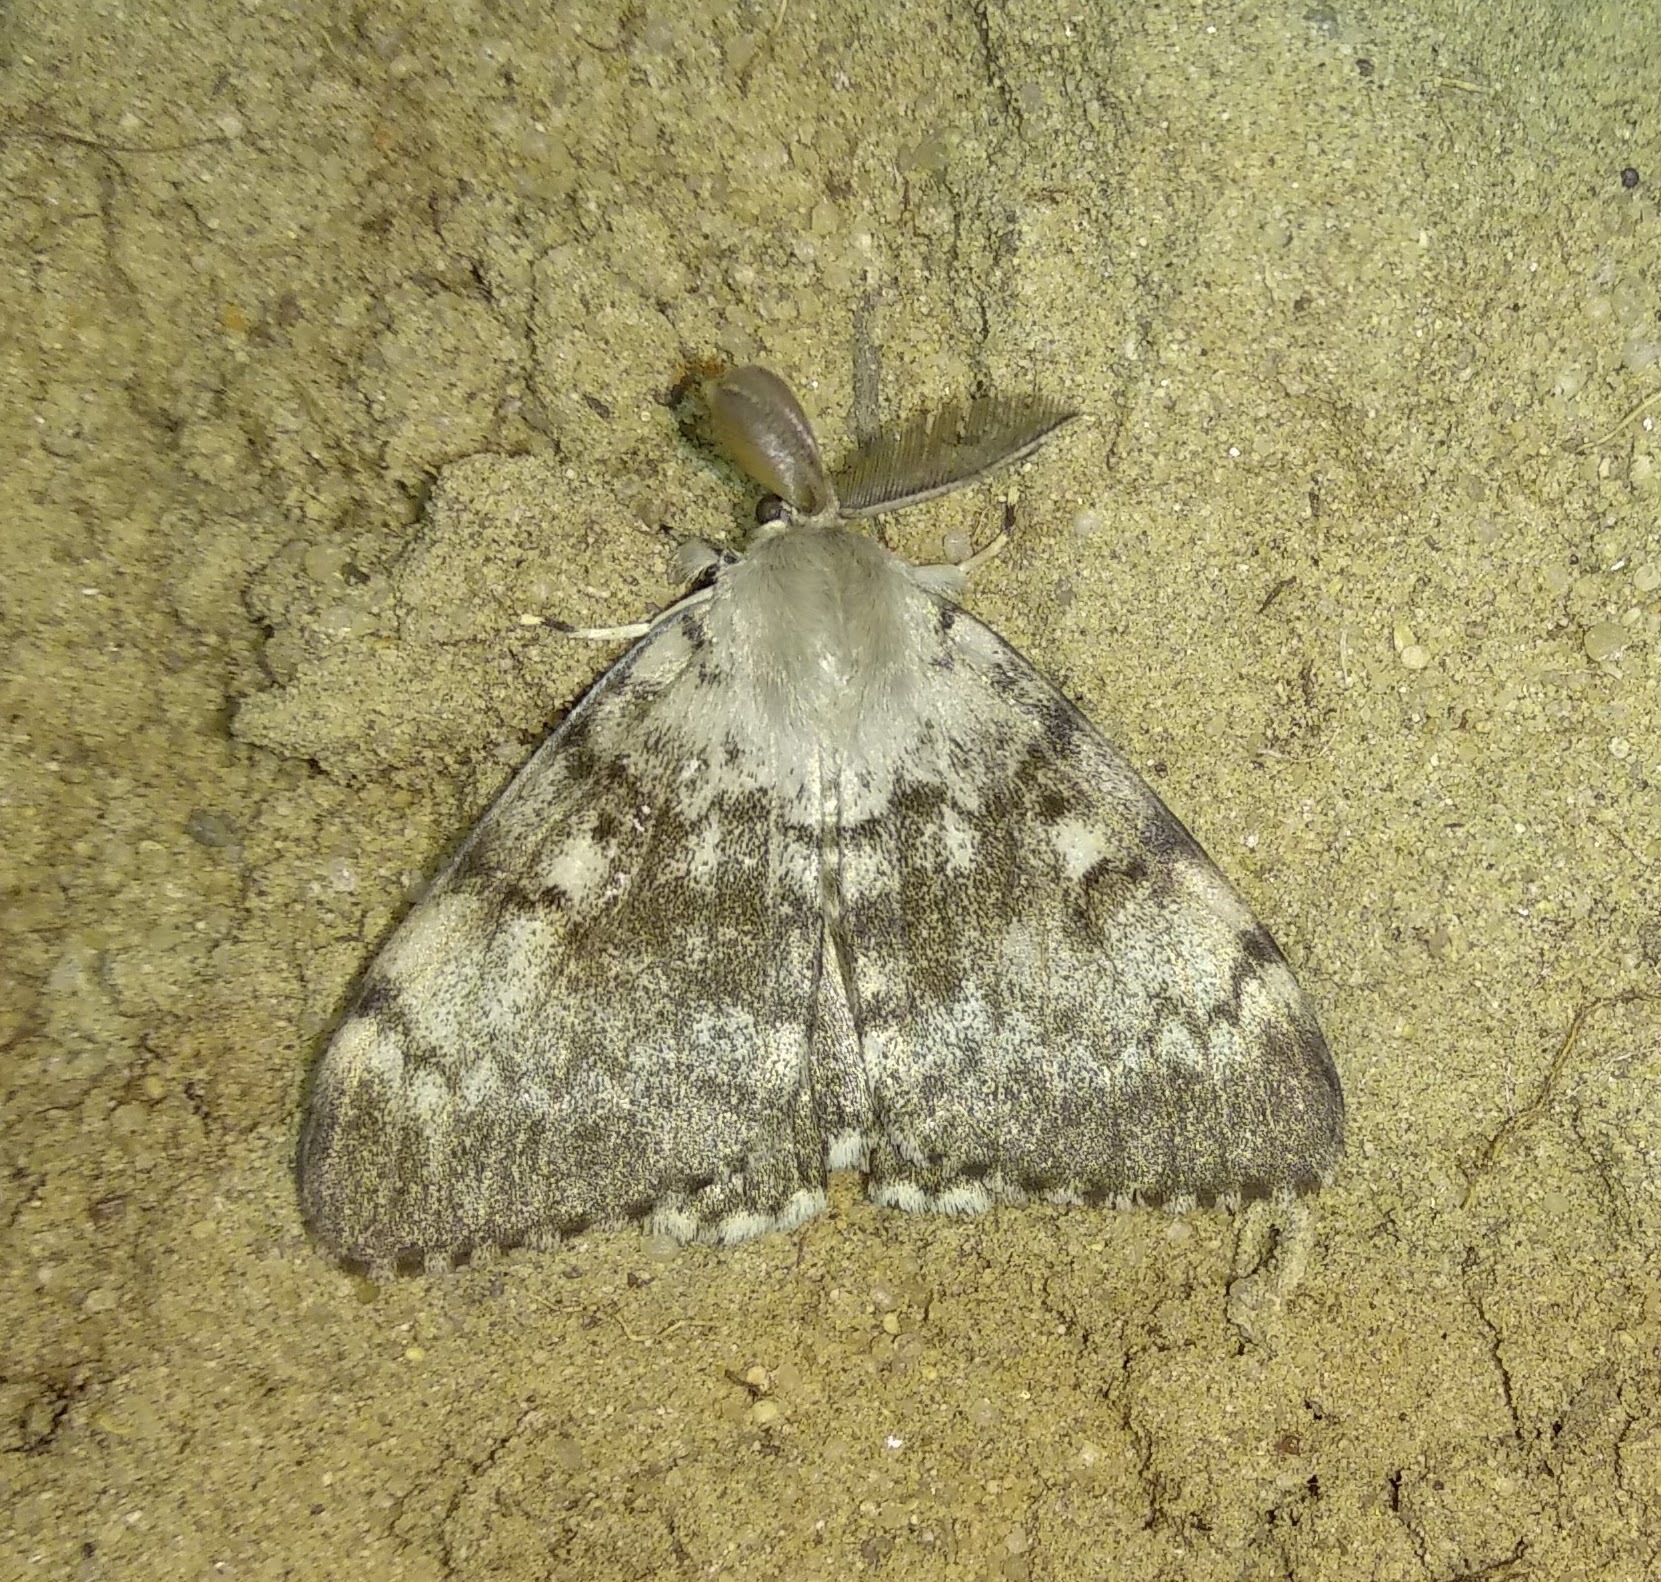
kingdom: Animalia
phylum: Arthropoda
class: Insecta
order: Lepidoptera
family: Erebidae
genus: Lymantria
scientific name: Lymantria dispar
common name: Gypsy moth
